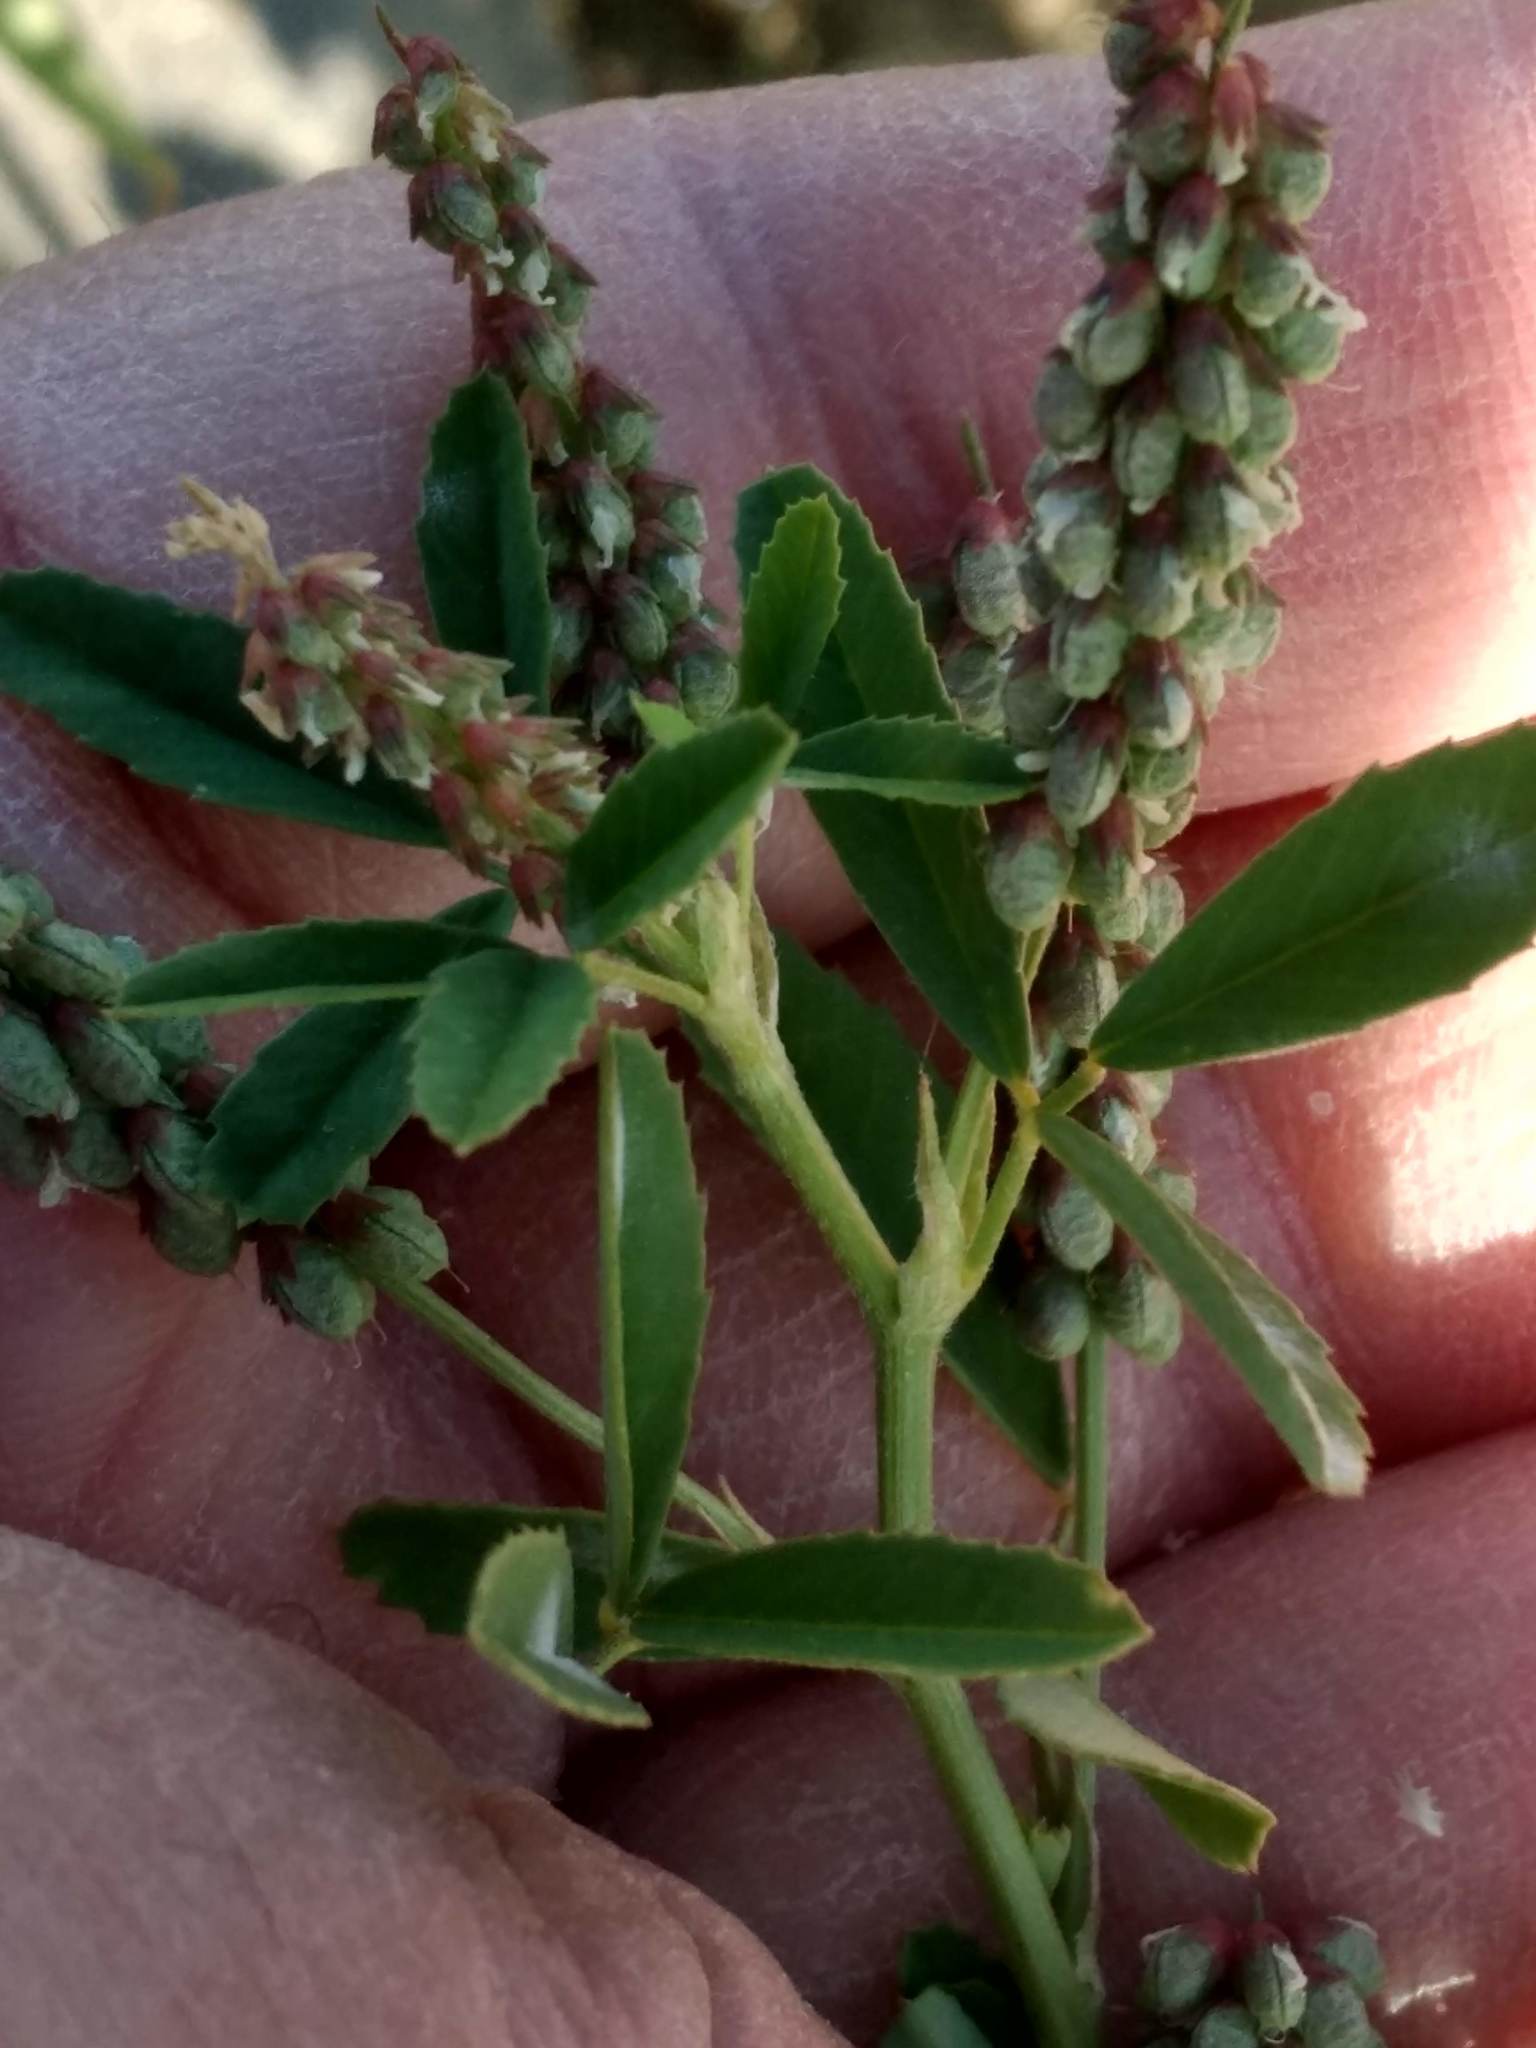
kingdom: Plantae
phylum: Tracheophyta
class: Magnoliopsida
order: Fabales
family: Fabaceae
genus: Melilotus
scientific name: Melilotus indicus
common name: Small melilot
